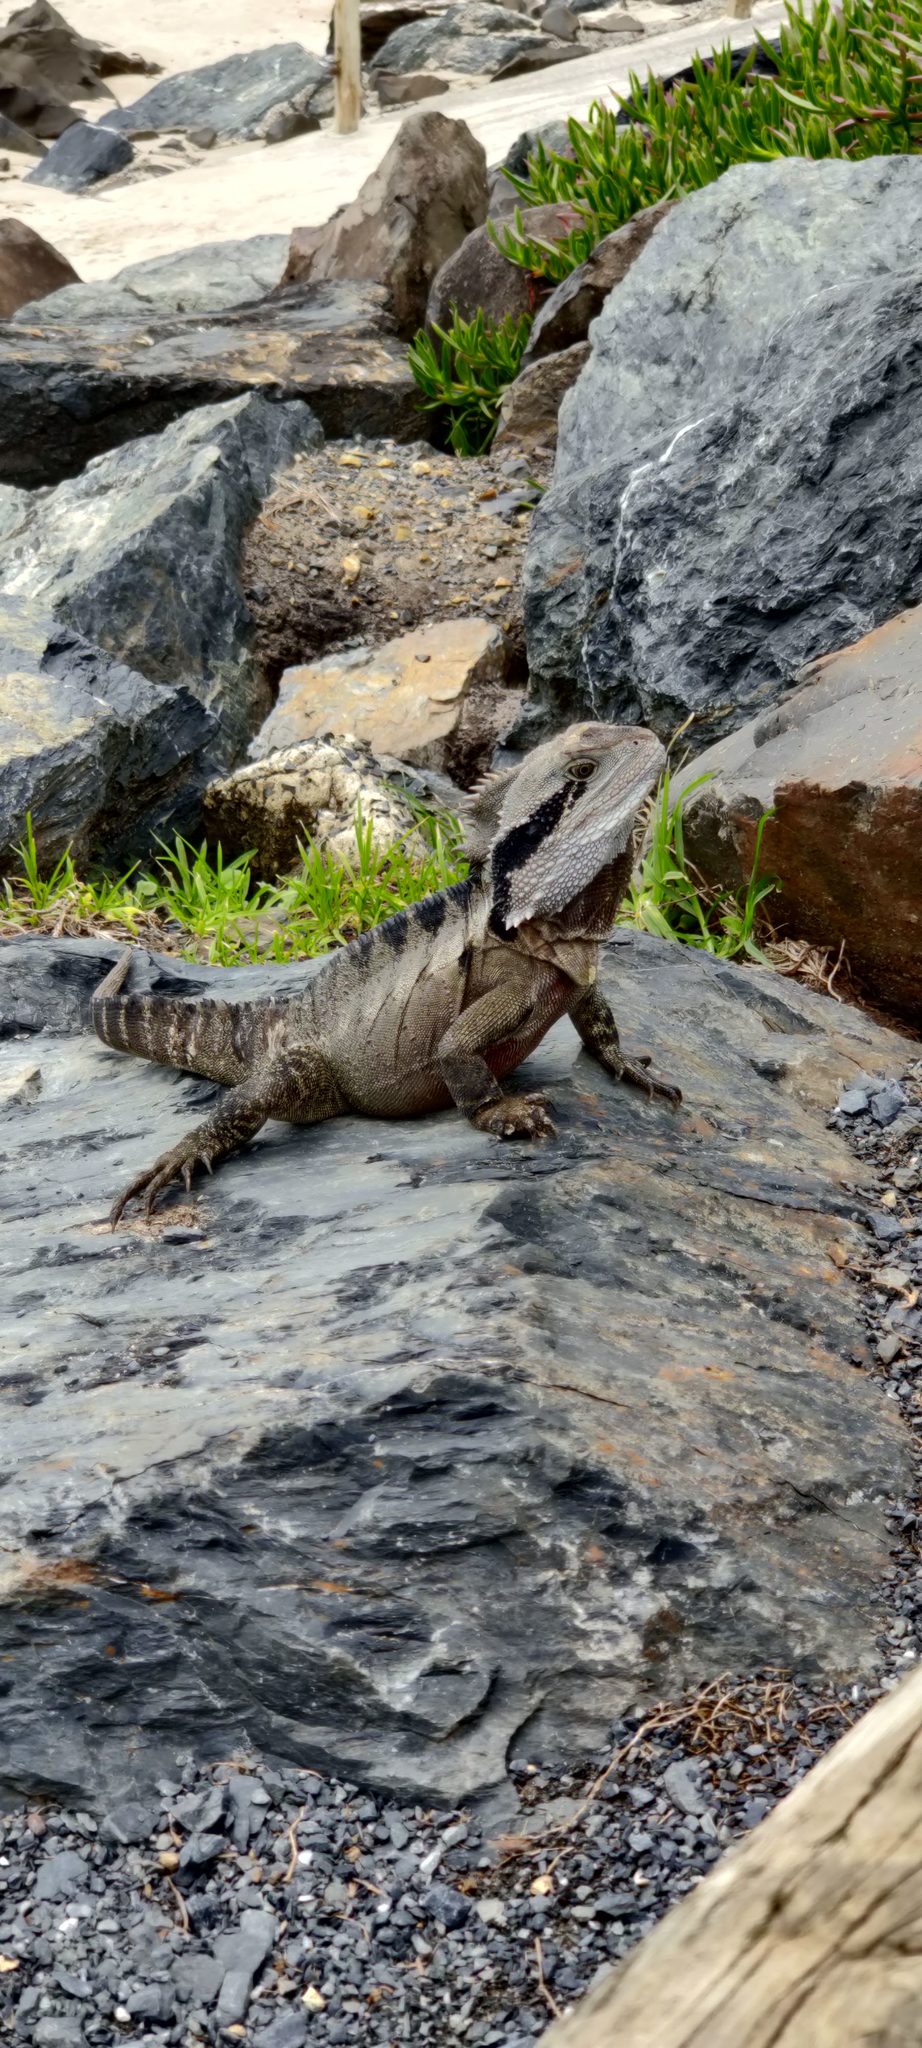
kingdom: Animalia
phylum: Chordata
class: Squamata
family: Agamidae
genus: Intellagama
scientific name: Intellagama lesueurii
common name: Eastern water dragon
